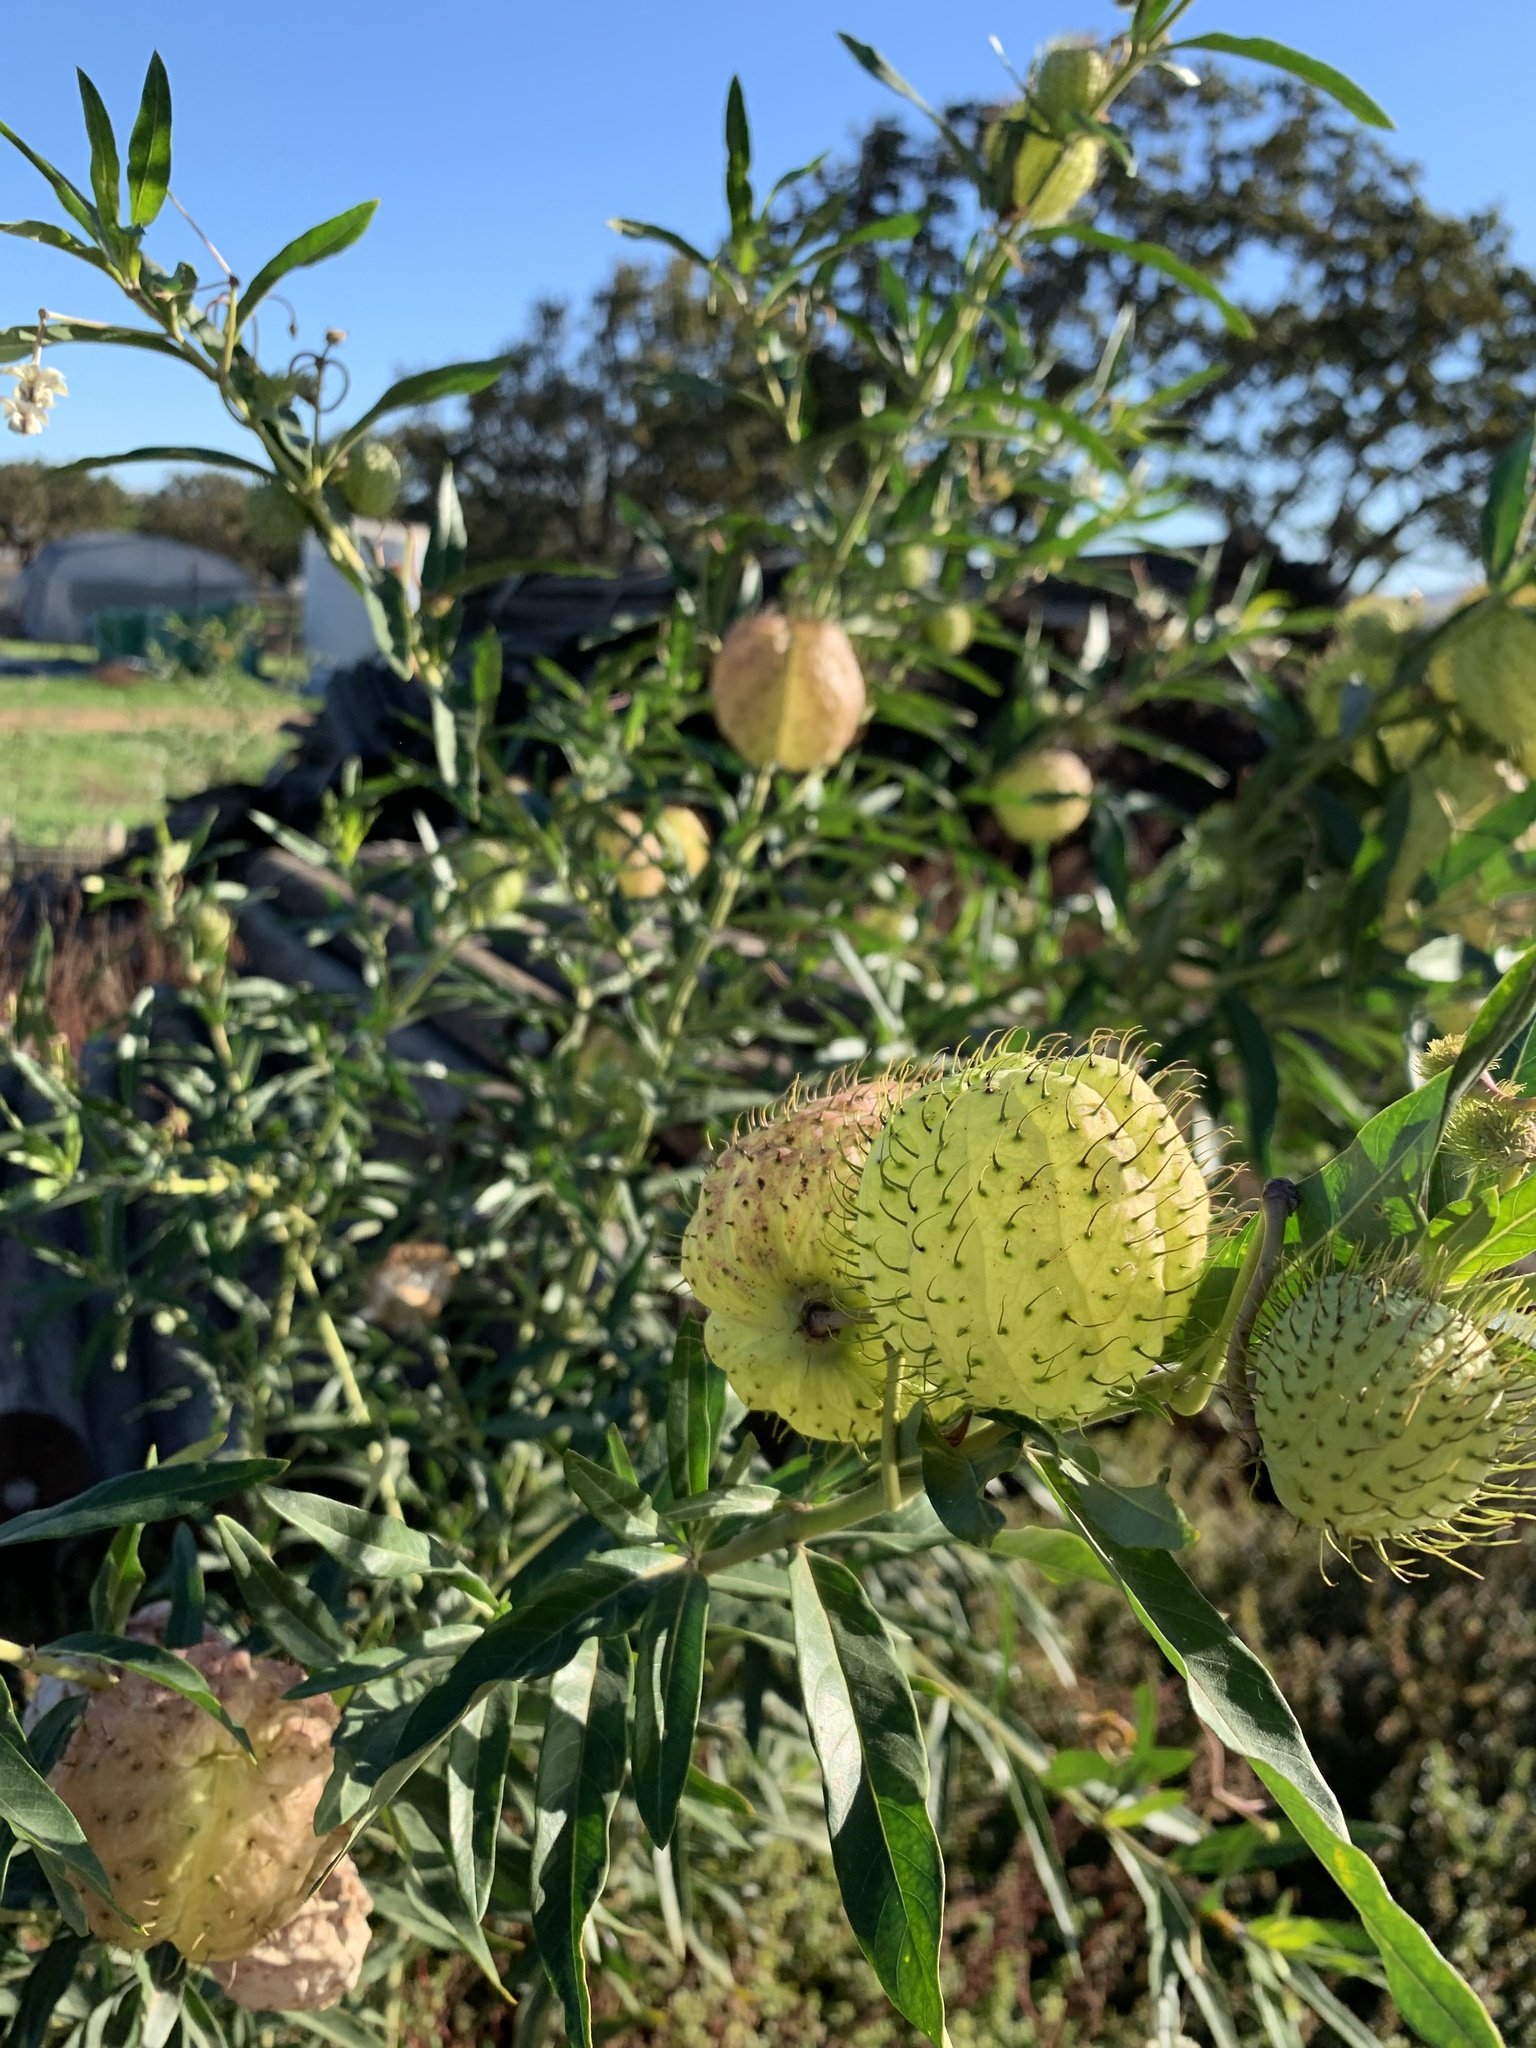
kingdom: Plantae
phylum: Tracheophyta
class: Magnoliopsida
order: Gentianales
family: Apocynaceae
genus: Gomphocarpus
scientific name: Gomphocarpus physocarpus
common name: Balloon cotton bush
